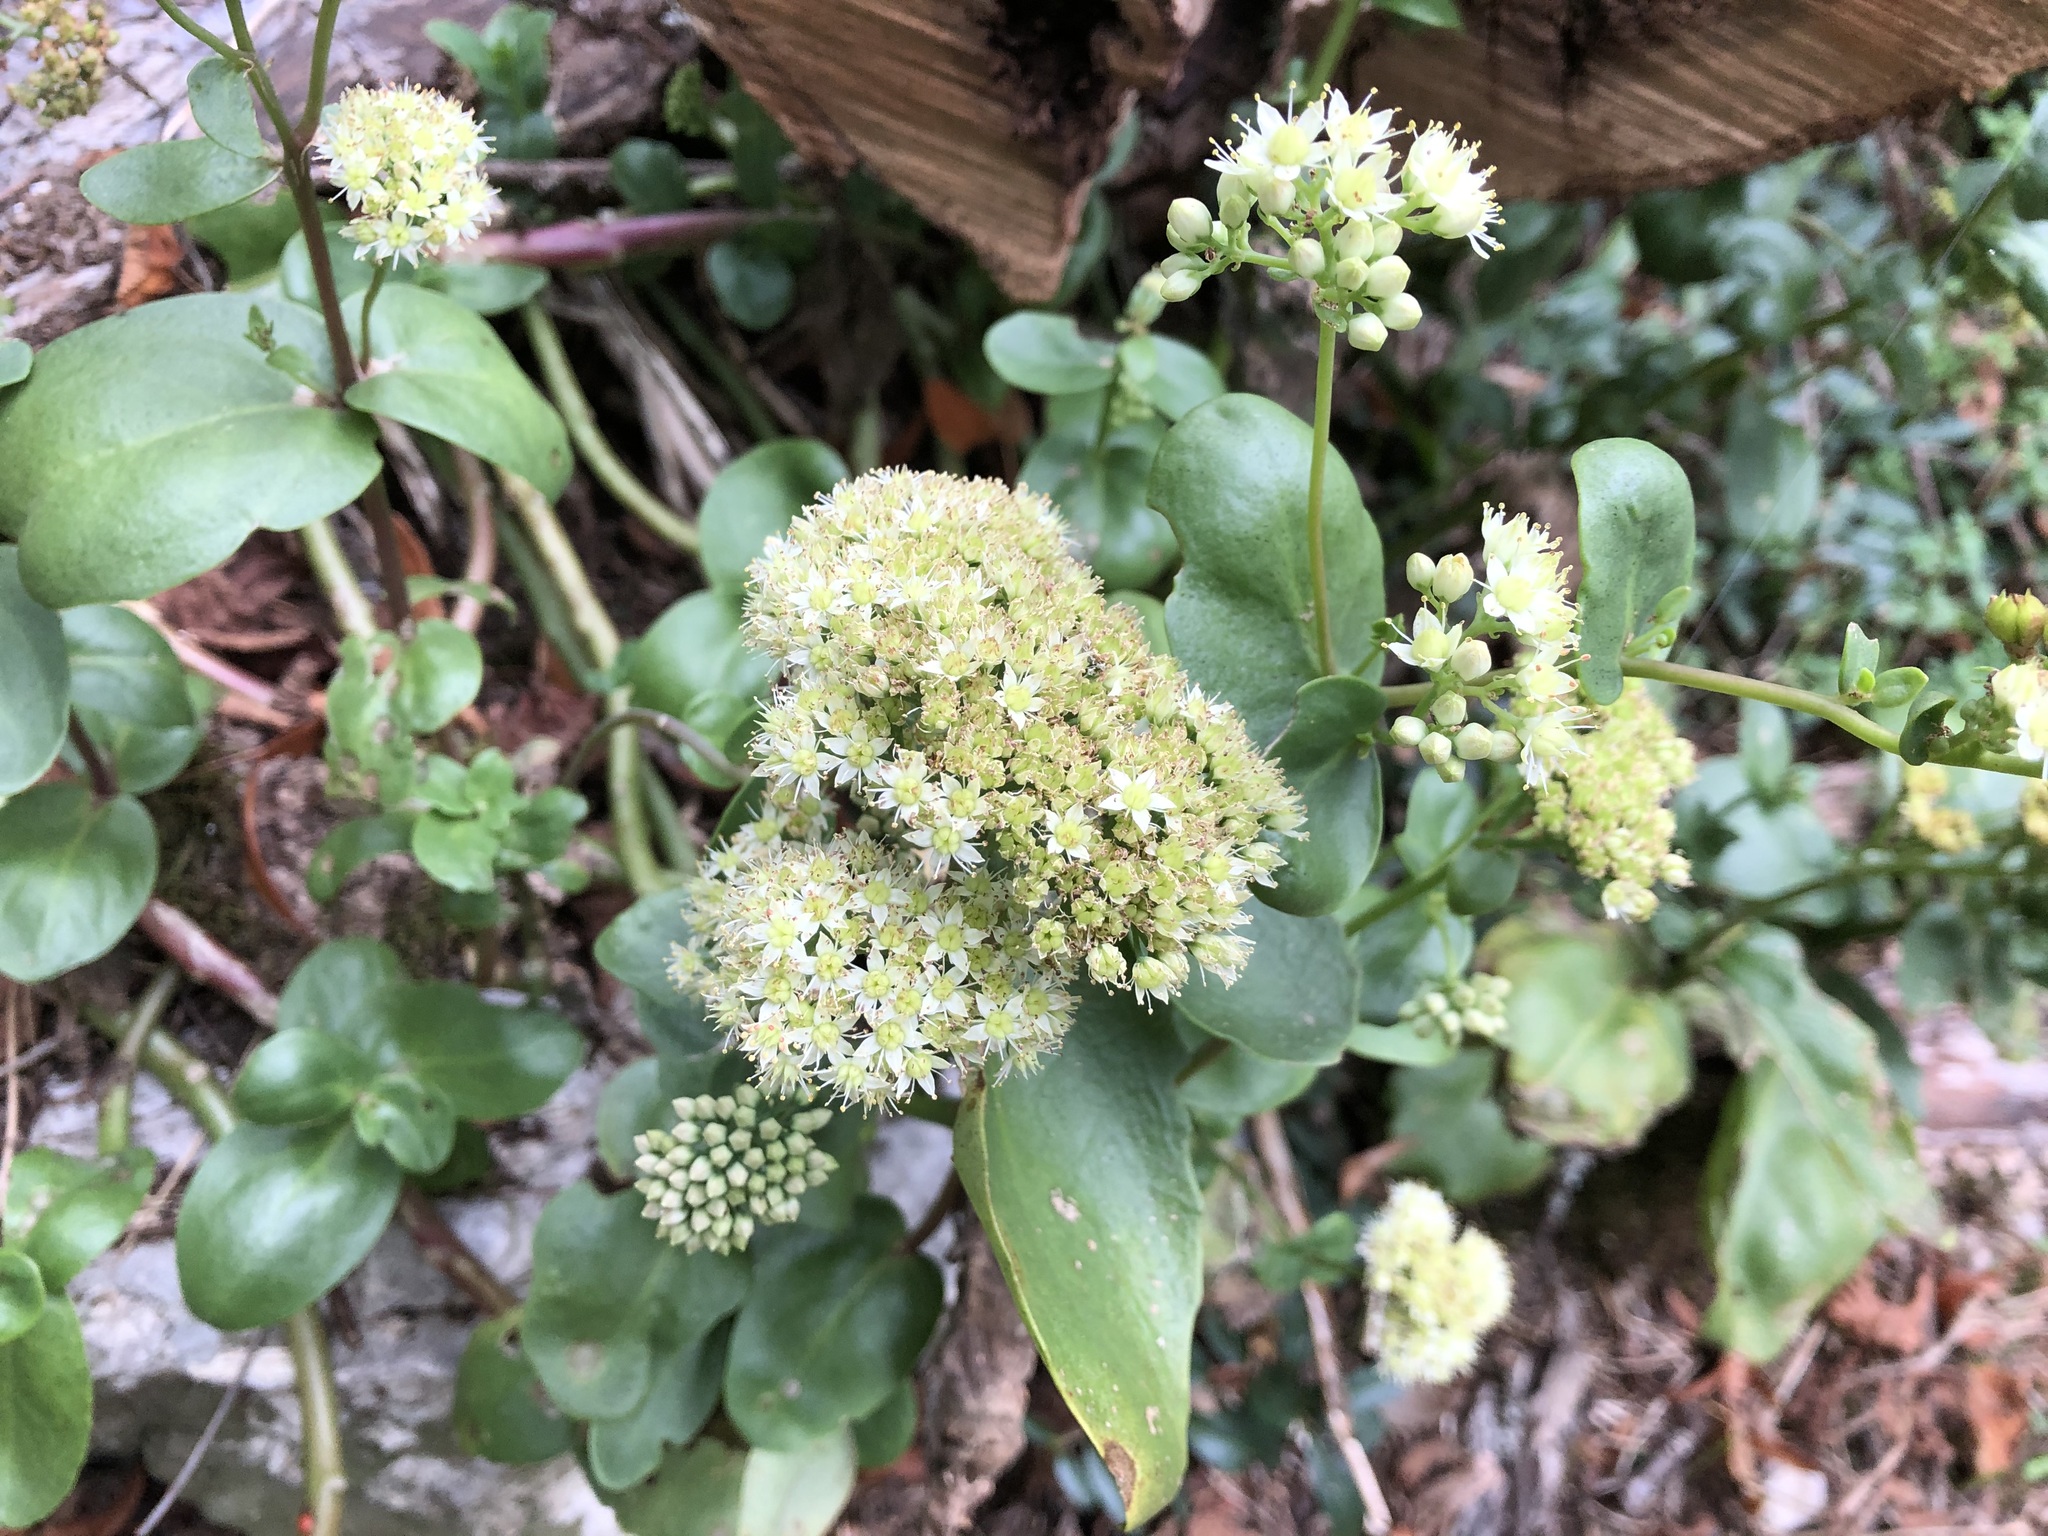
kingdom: Plantae
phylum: Tracheophyta
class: Magnoliopsida
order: Saxifragales
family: Crassulaceae
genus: Hylotelephium
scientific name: Hylotelephium maximum
